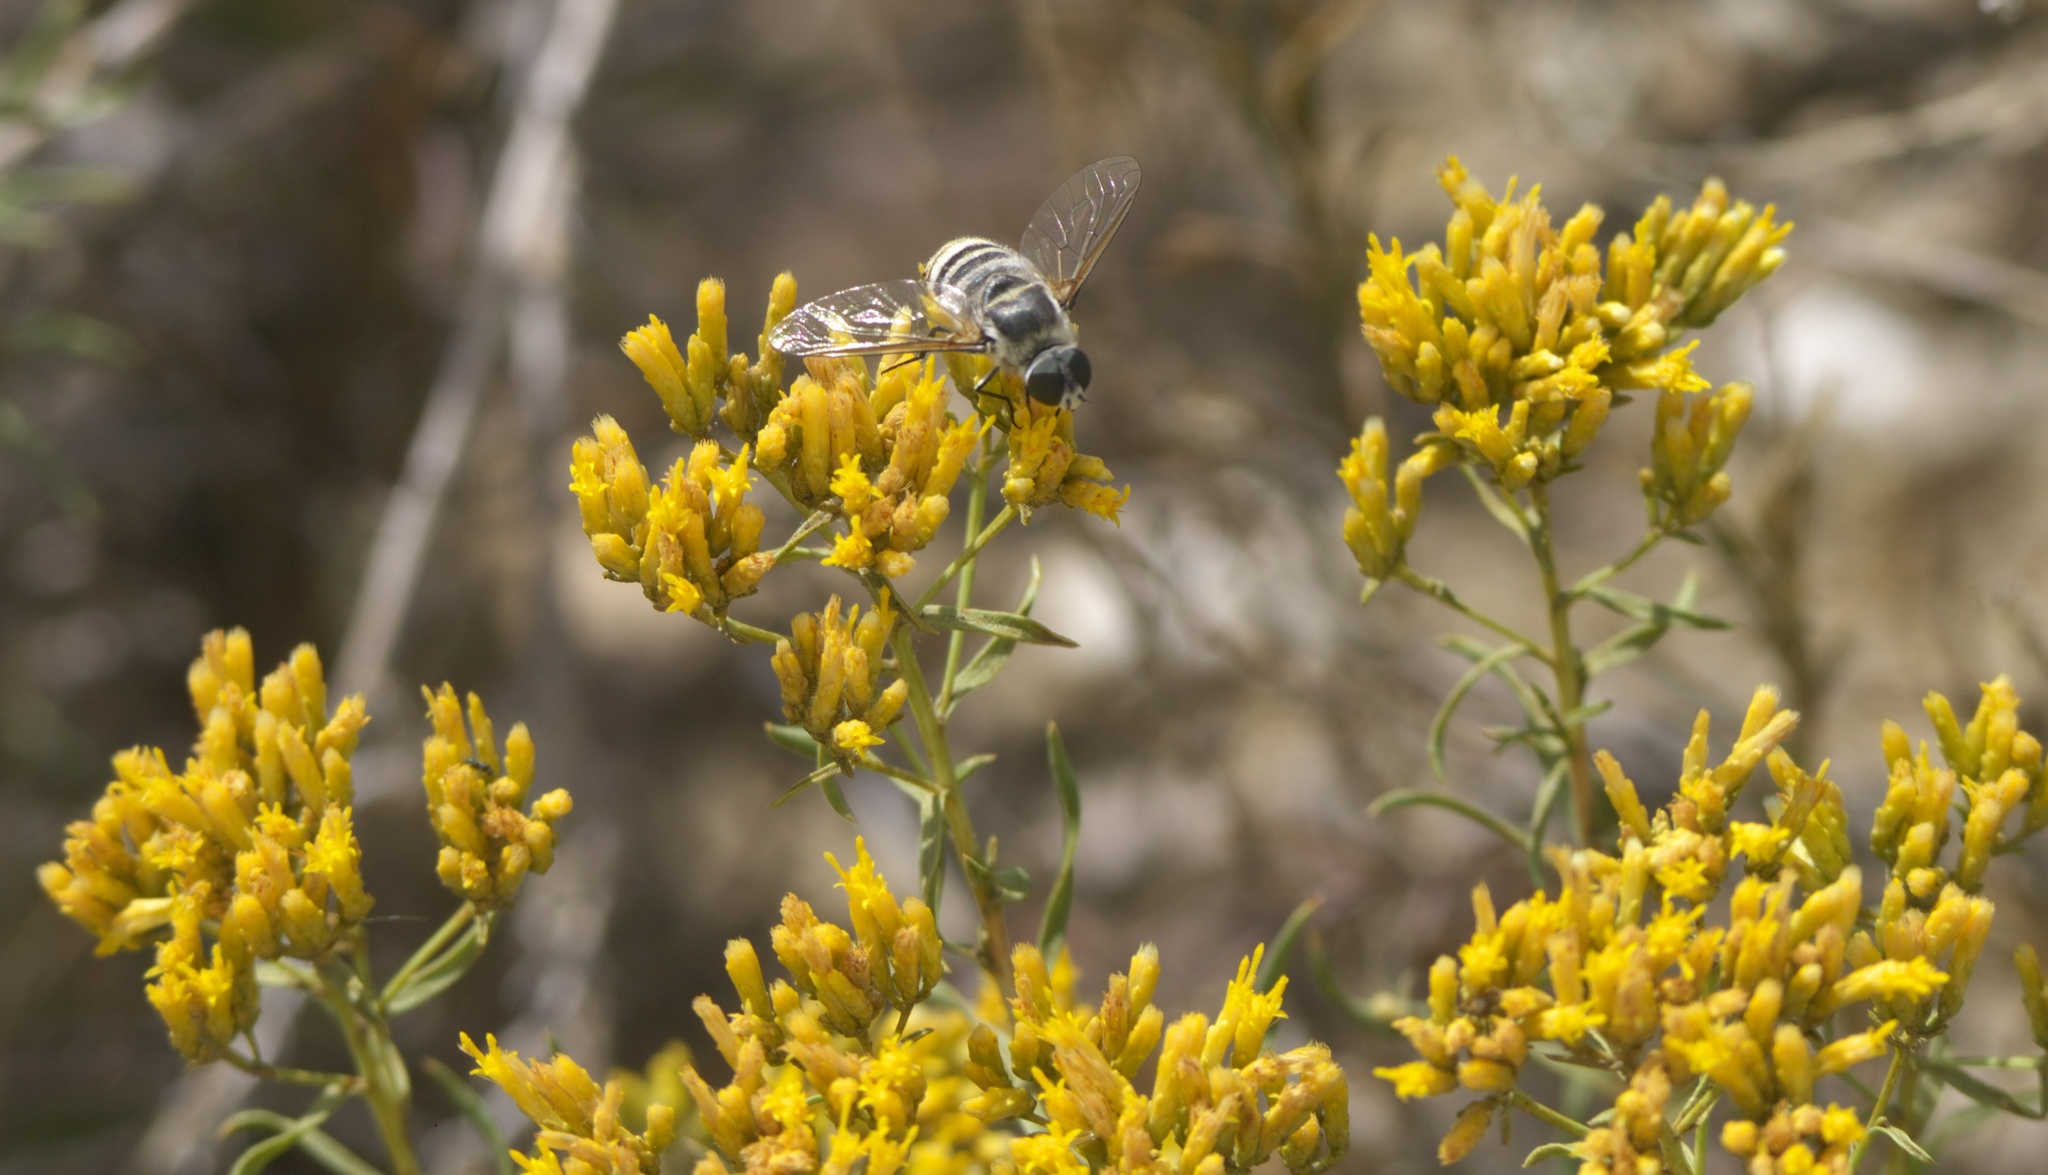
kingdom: Plantae
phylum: Tracheophyta
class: Magnoliopsida
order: Asterales
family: Asteraceae
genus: Chrysothamnus
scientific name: Chrysothamnus viscidiflorus
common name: Yellow rabbitbrush
